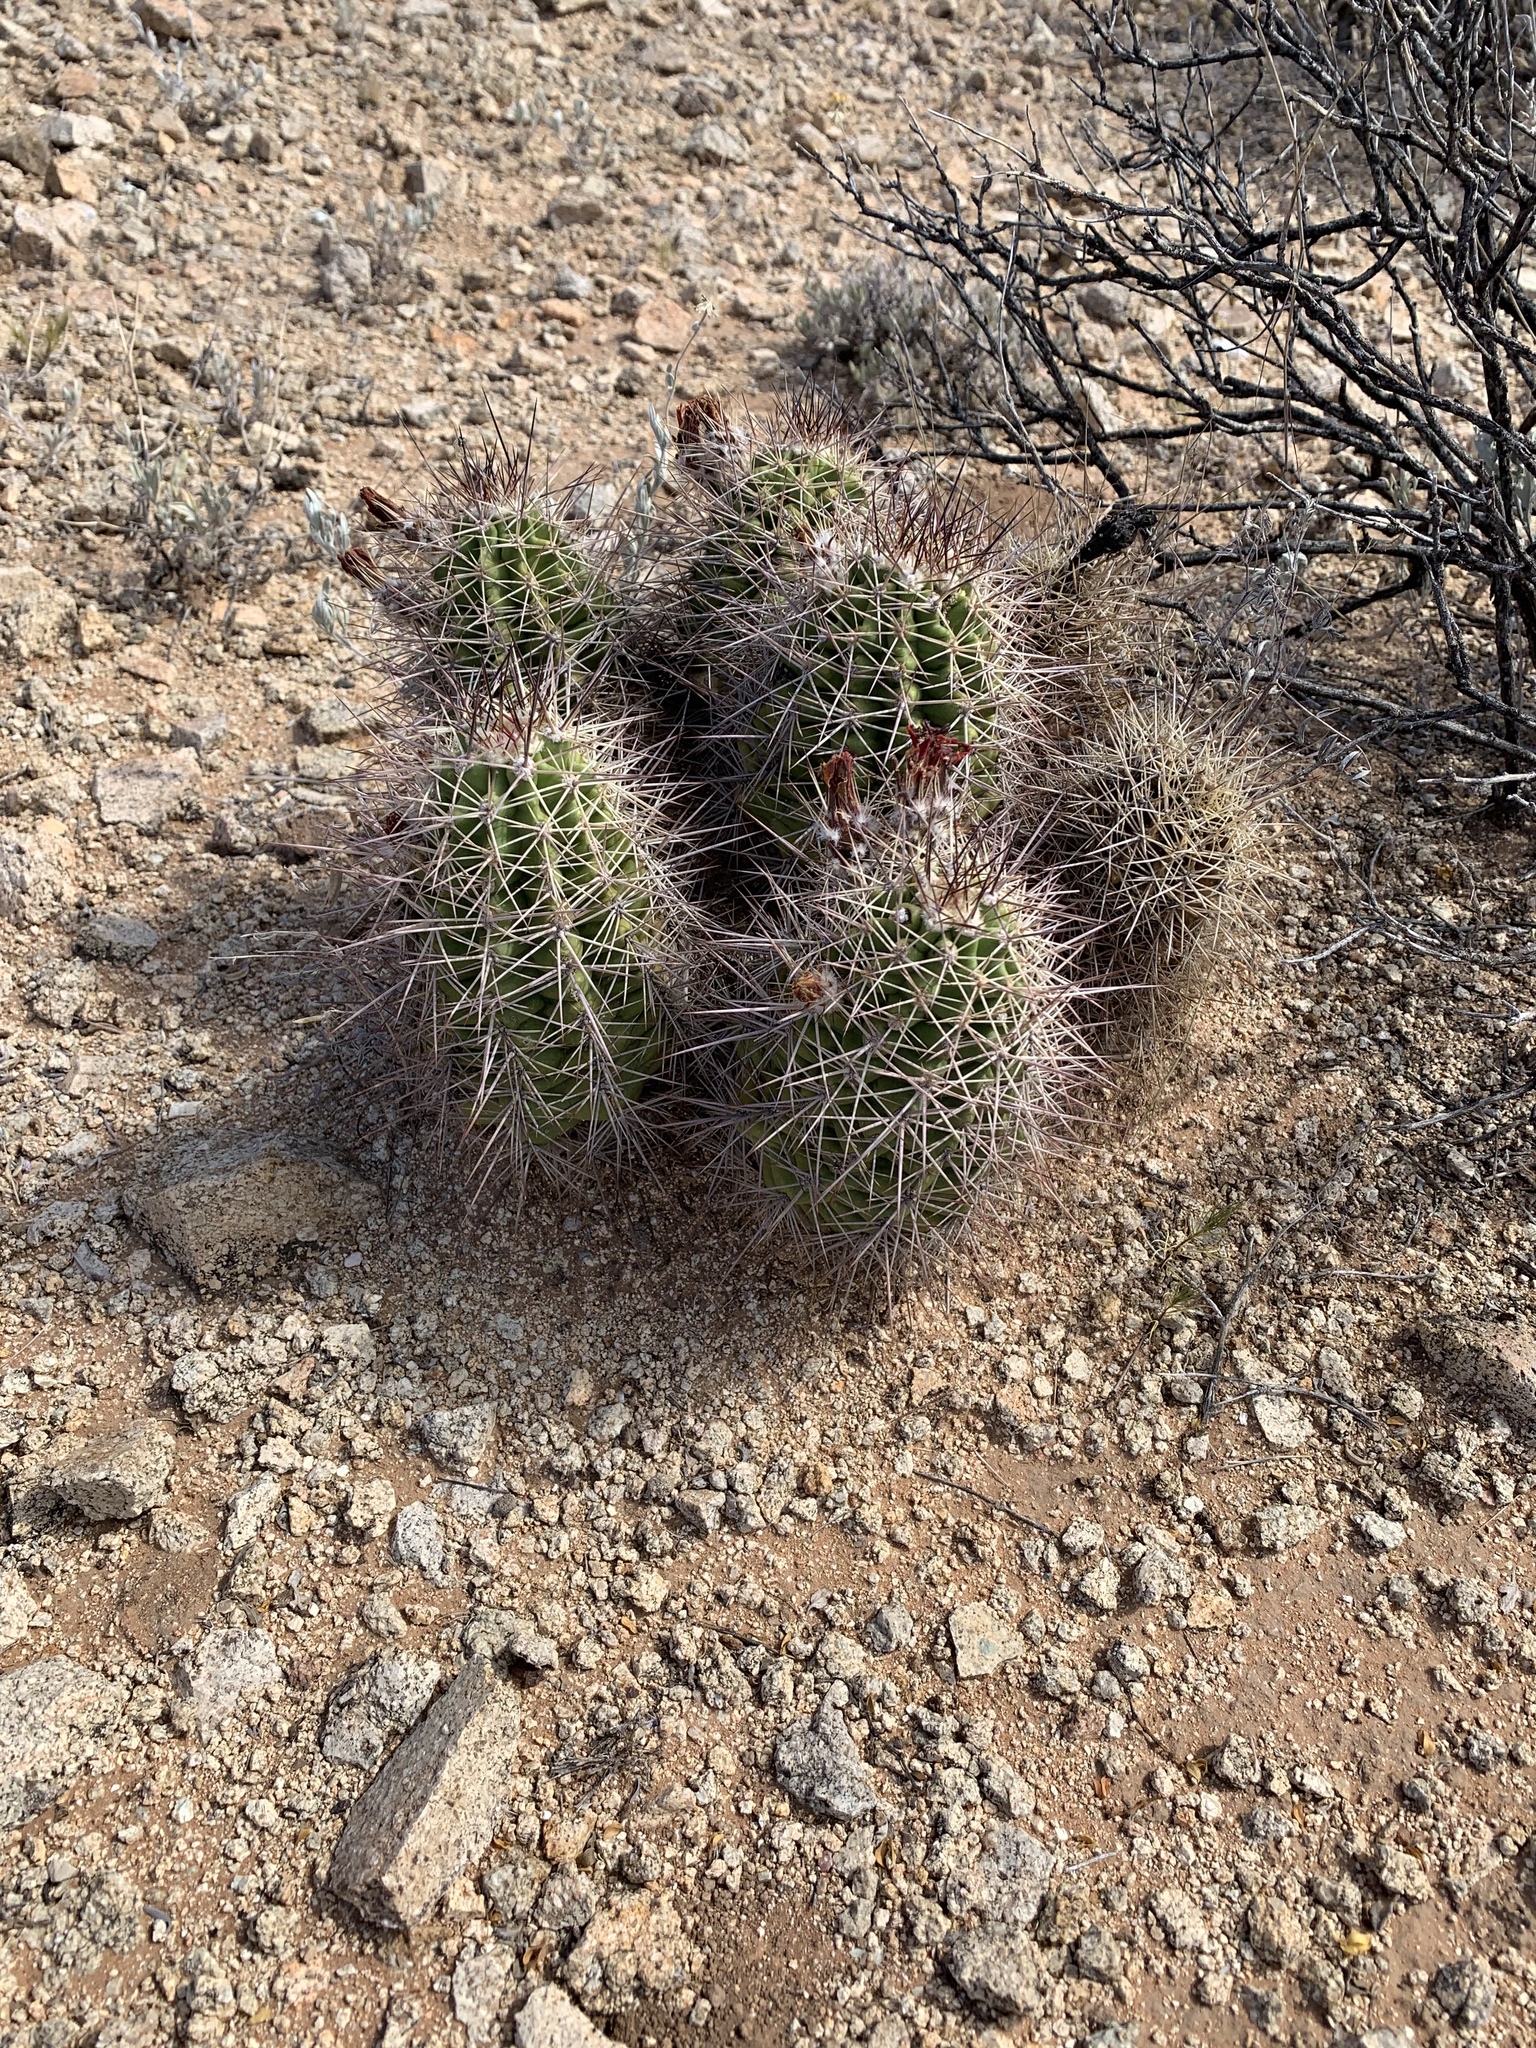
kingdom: Plantae
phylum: Tracheophyta
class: Magnoliopsida
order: Caryophyllales
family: Cactaceae
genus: Echinocereus
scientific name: Echinocereus coccineus
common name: Scarlet hedgehog cactus
